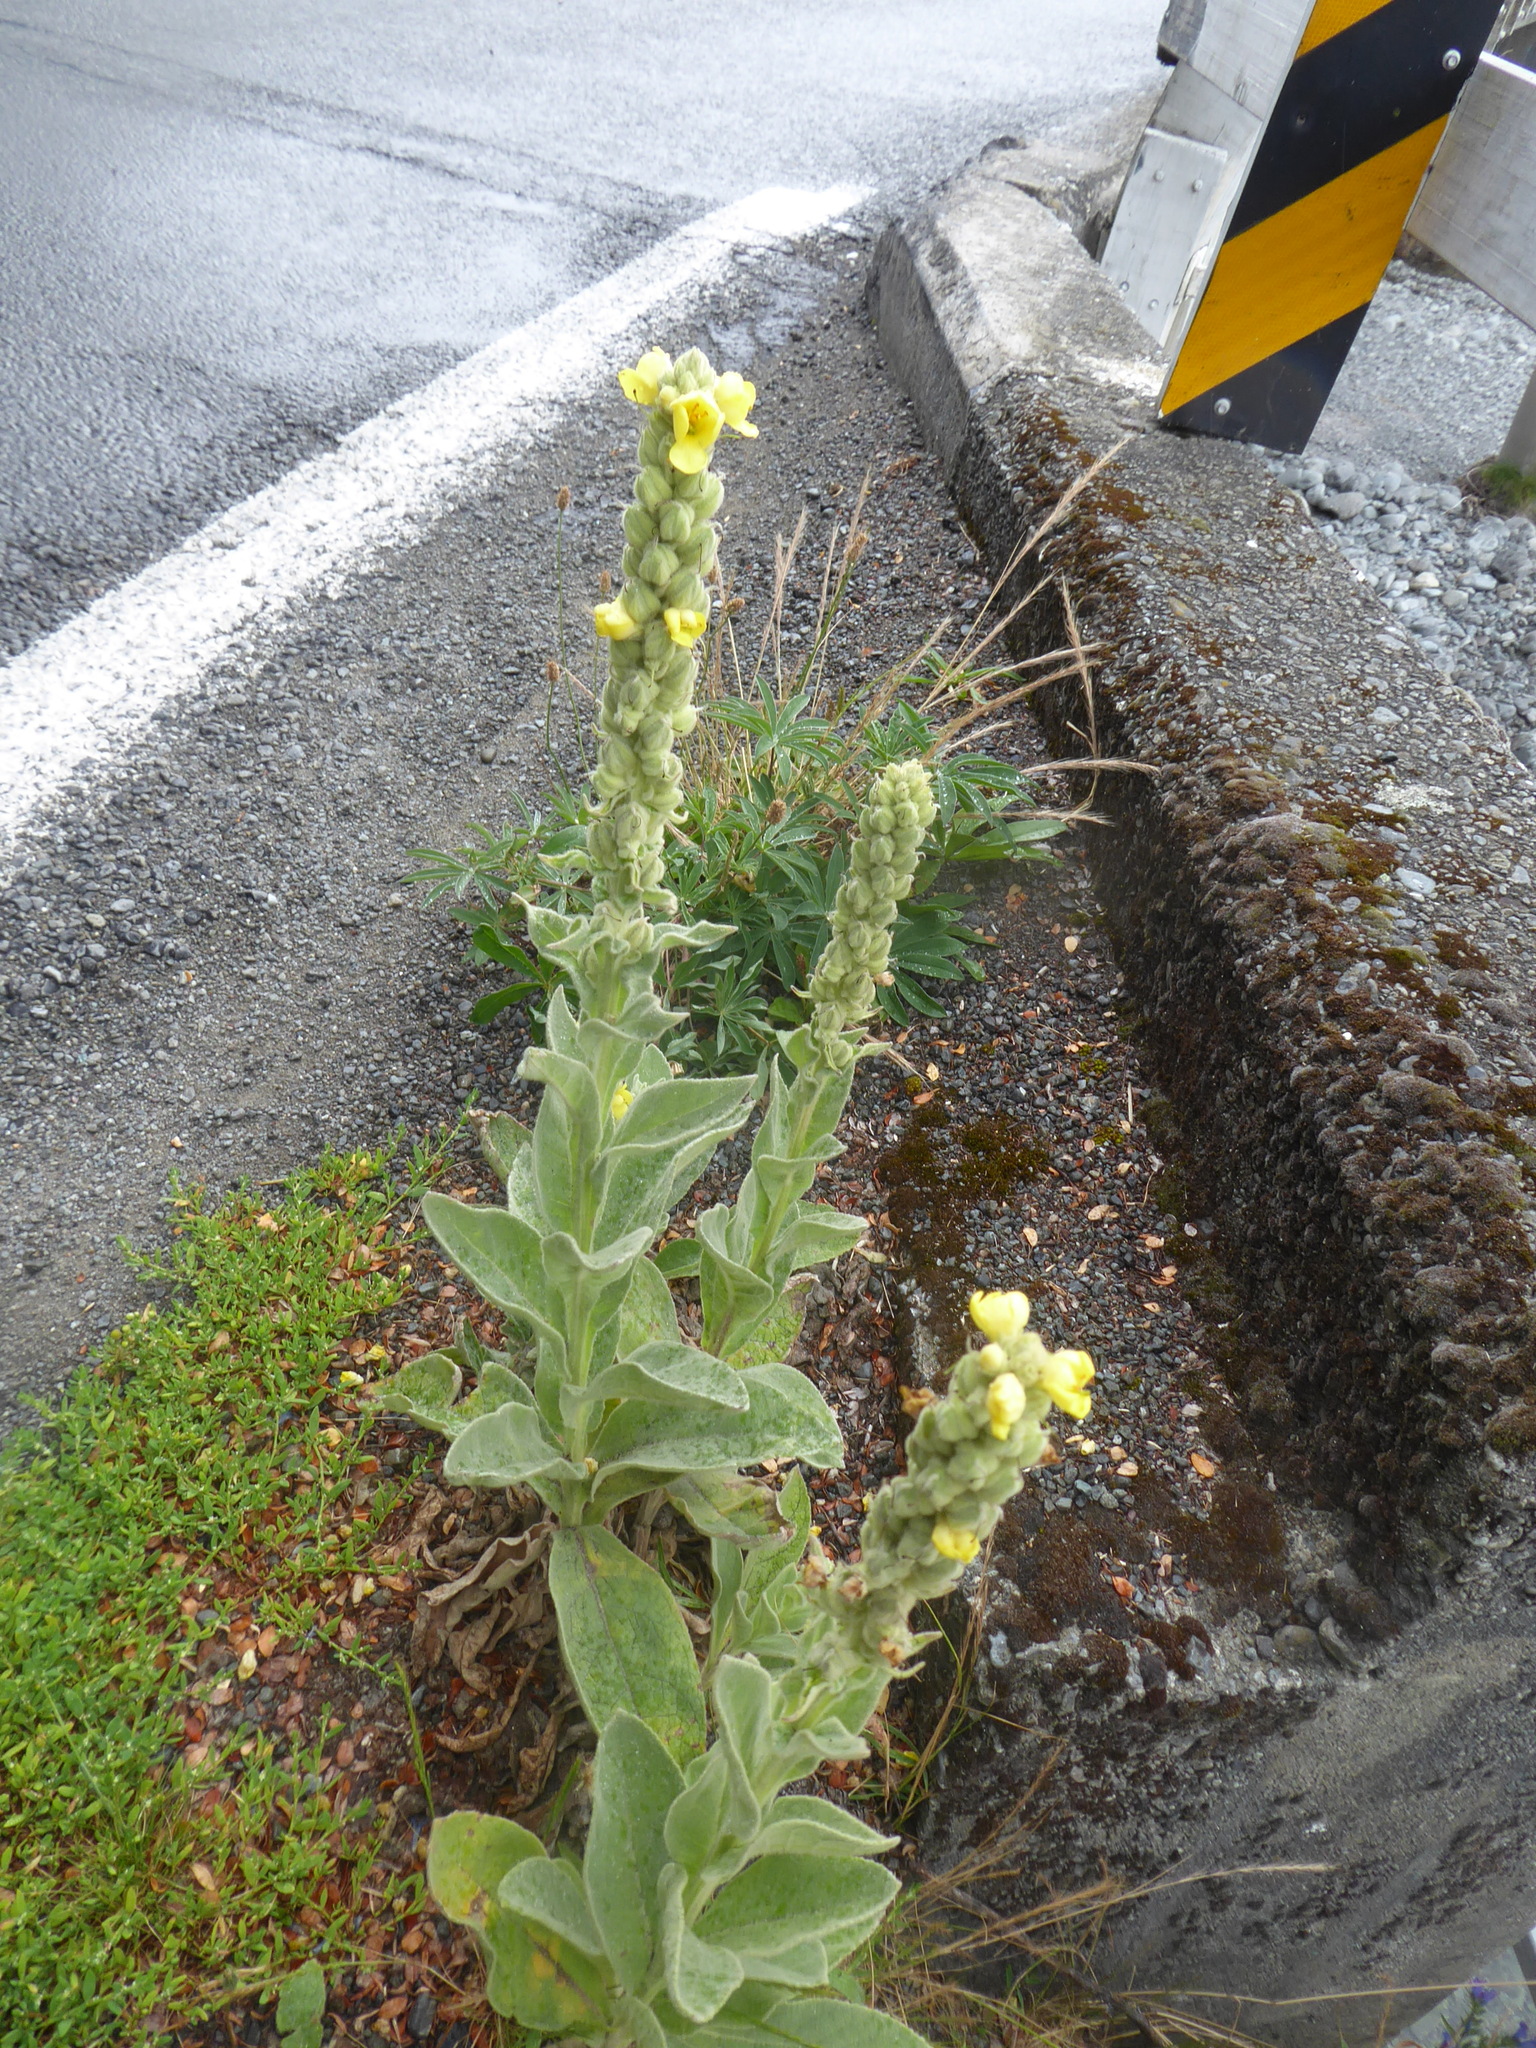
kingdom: Plantae
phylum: Tracheophyta
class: Magnoliopsida
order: Lamiales
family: Scrophulariaceae
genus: Verbascum
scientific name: Verbascum thapsus
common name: Common mullein
